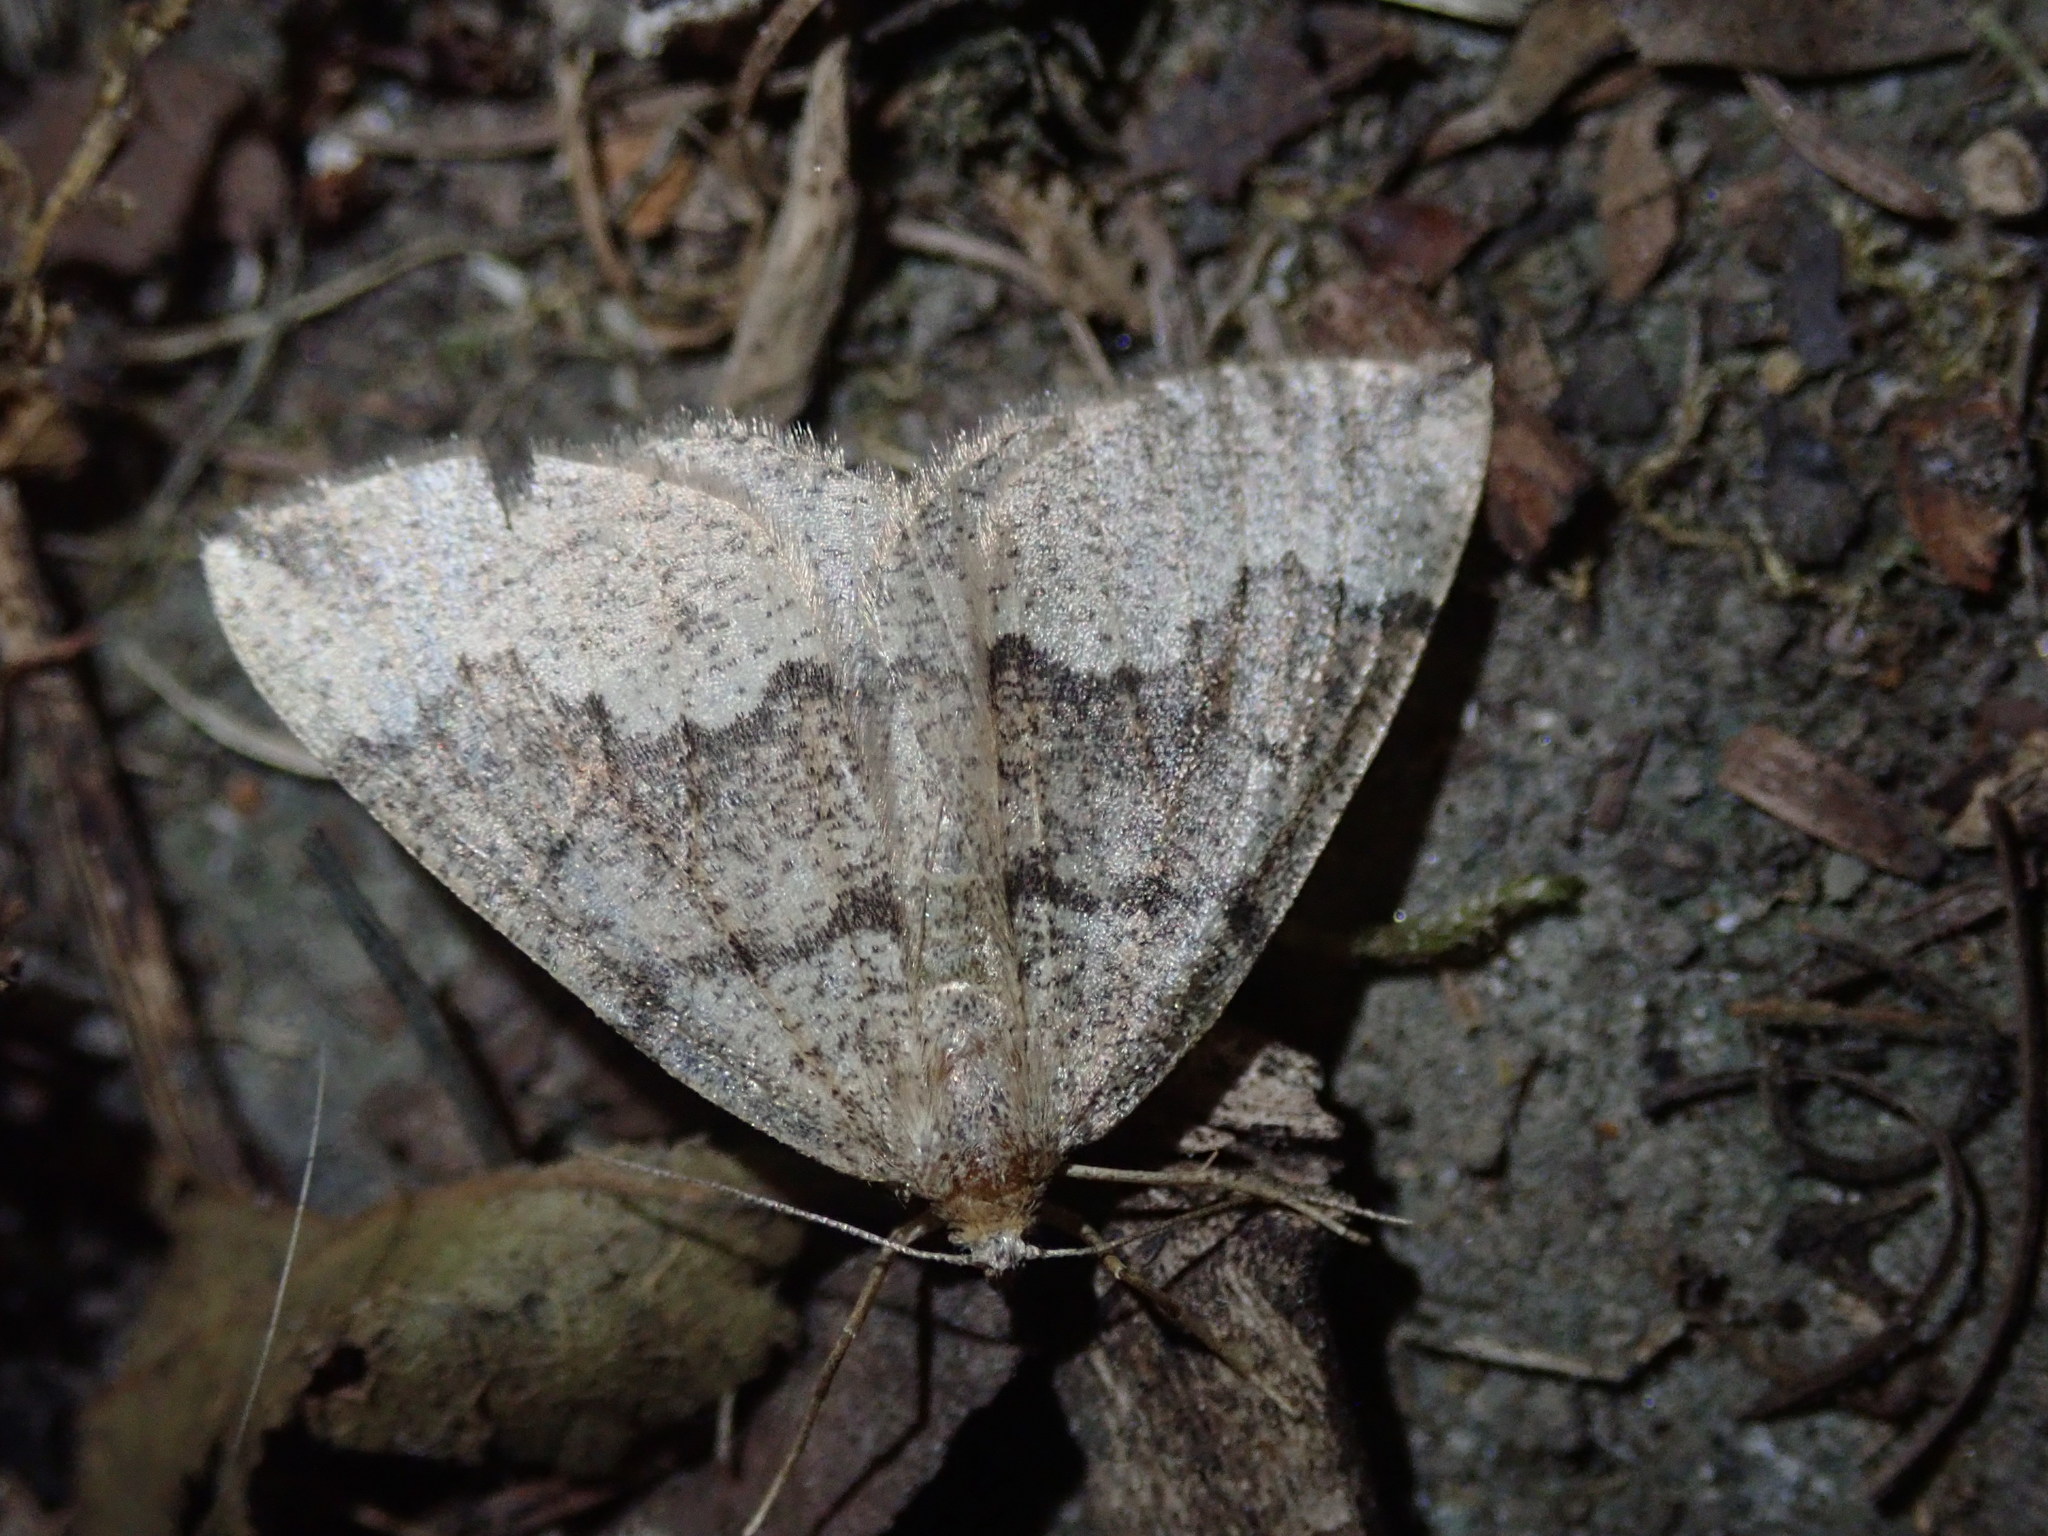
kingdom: Animalia
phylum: Arthropoda
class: Insecta
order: Lepidoptera
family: Geometridae
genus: Pungeleria
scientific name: Pungeleria capreolaria
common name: Banded pine carpet
